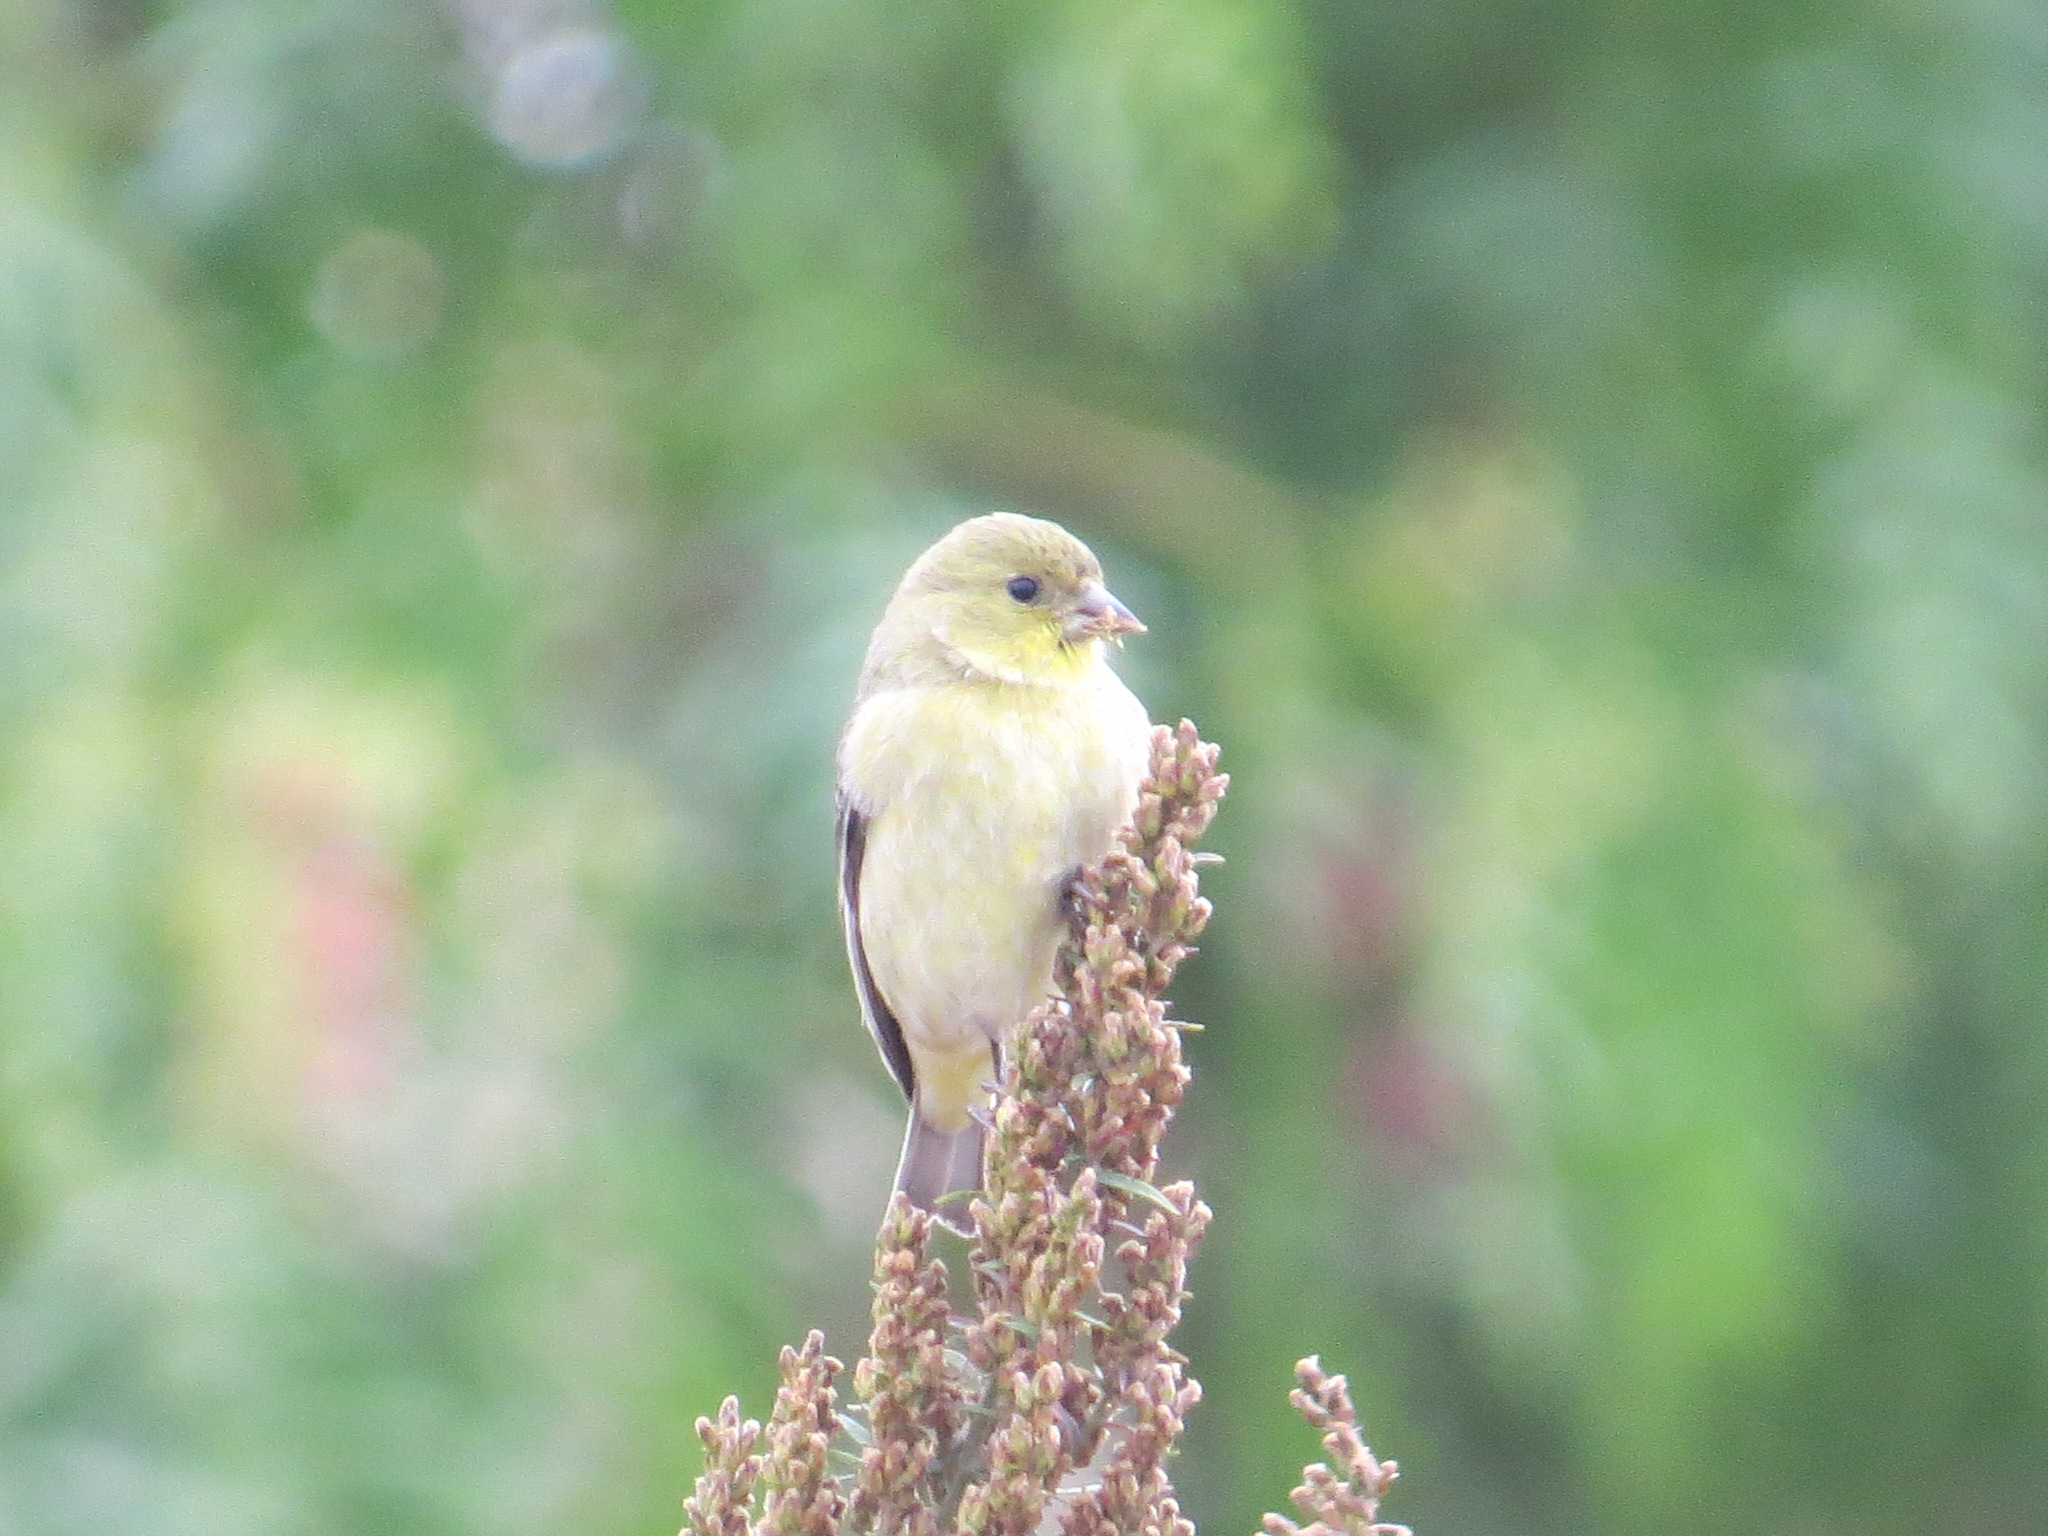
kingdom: Animalia
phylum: Chordata
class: Aves
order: Passeriformes
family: Fringillidae
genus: Spinus
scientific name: Spinus psaltria
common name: Lesser goldfinch
